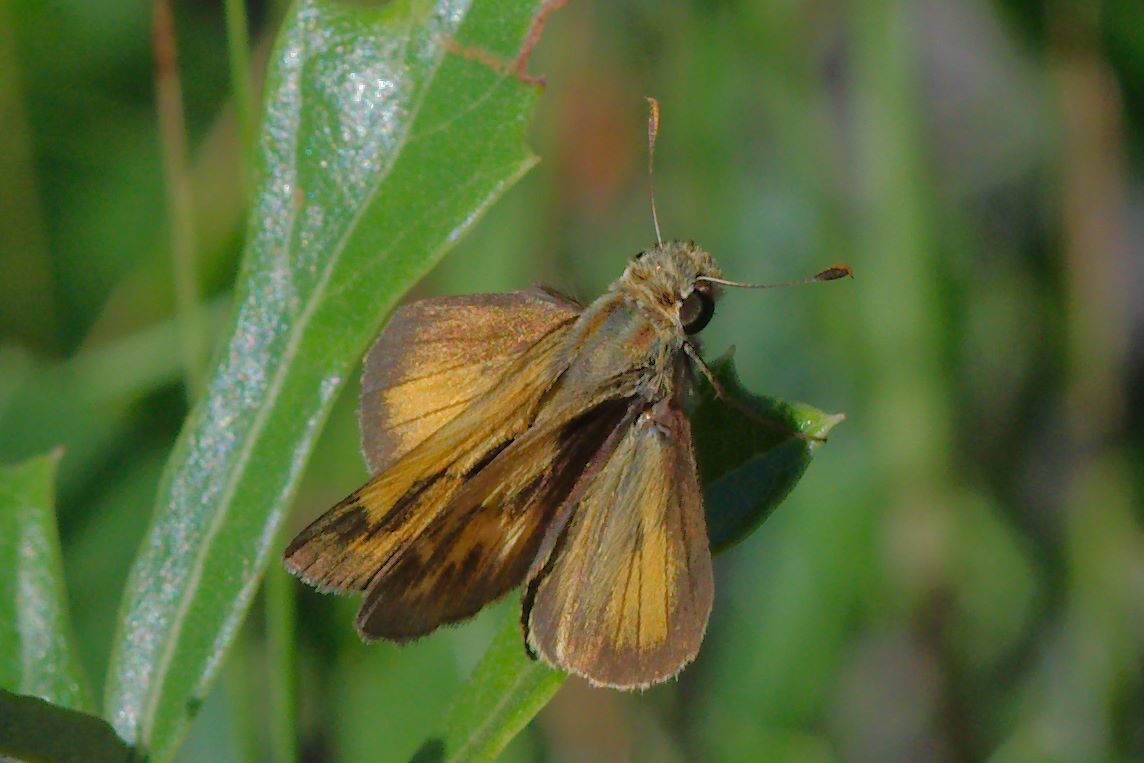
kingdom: Animalia
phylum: Arthropoda
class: Insecta
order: Lepidoptera
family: Hesperiidae
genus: Polites
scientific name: Polites vibex
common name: Whirlabout
